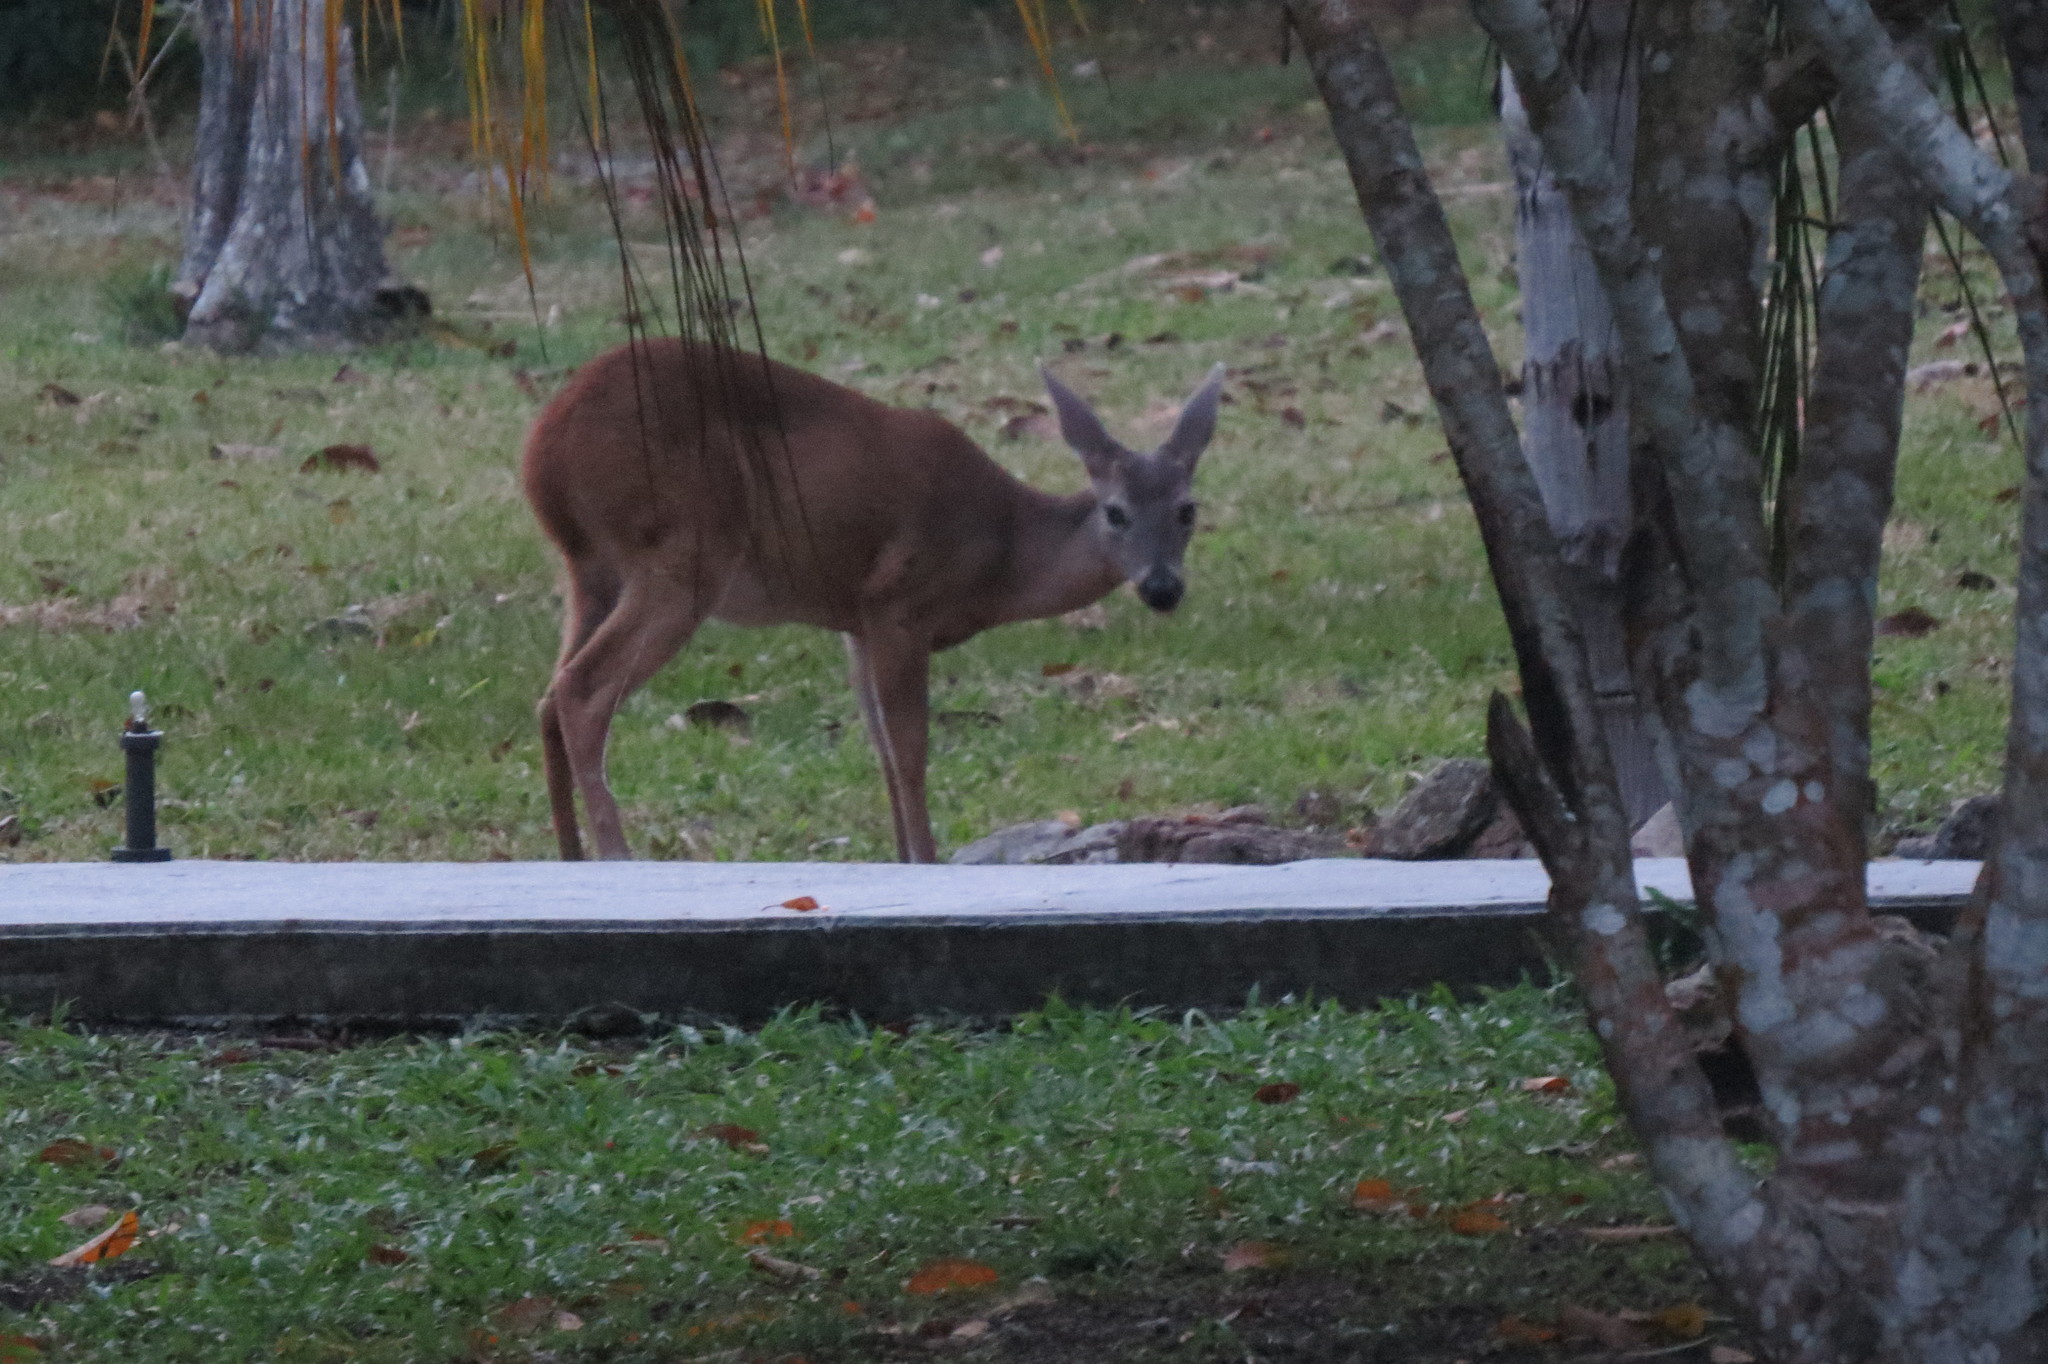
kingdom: Animalia
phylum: Chordata
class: Mammalia
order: Artiodactyla
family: Cervidae
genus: Odocoileus
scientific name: Odocoileus virginianus
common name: White-tailed deer
